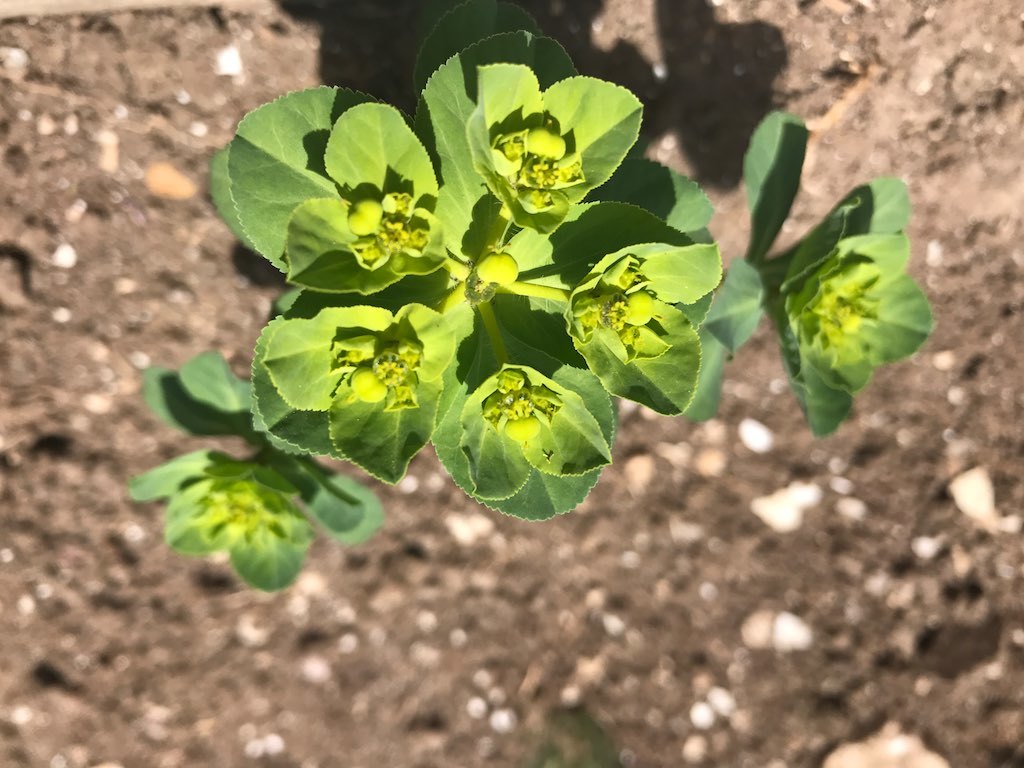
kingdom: Plantae
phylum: Tracheophyta
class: Magnoliopsida
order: Malpighiales
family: Euphorbiaceae
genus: Euphorbia
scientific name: Euphorbia helioscopia
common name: Sun spurge
